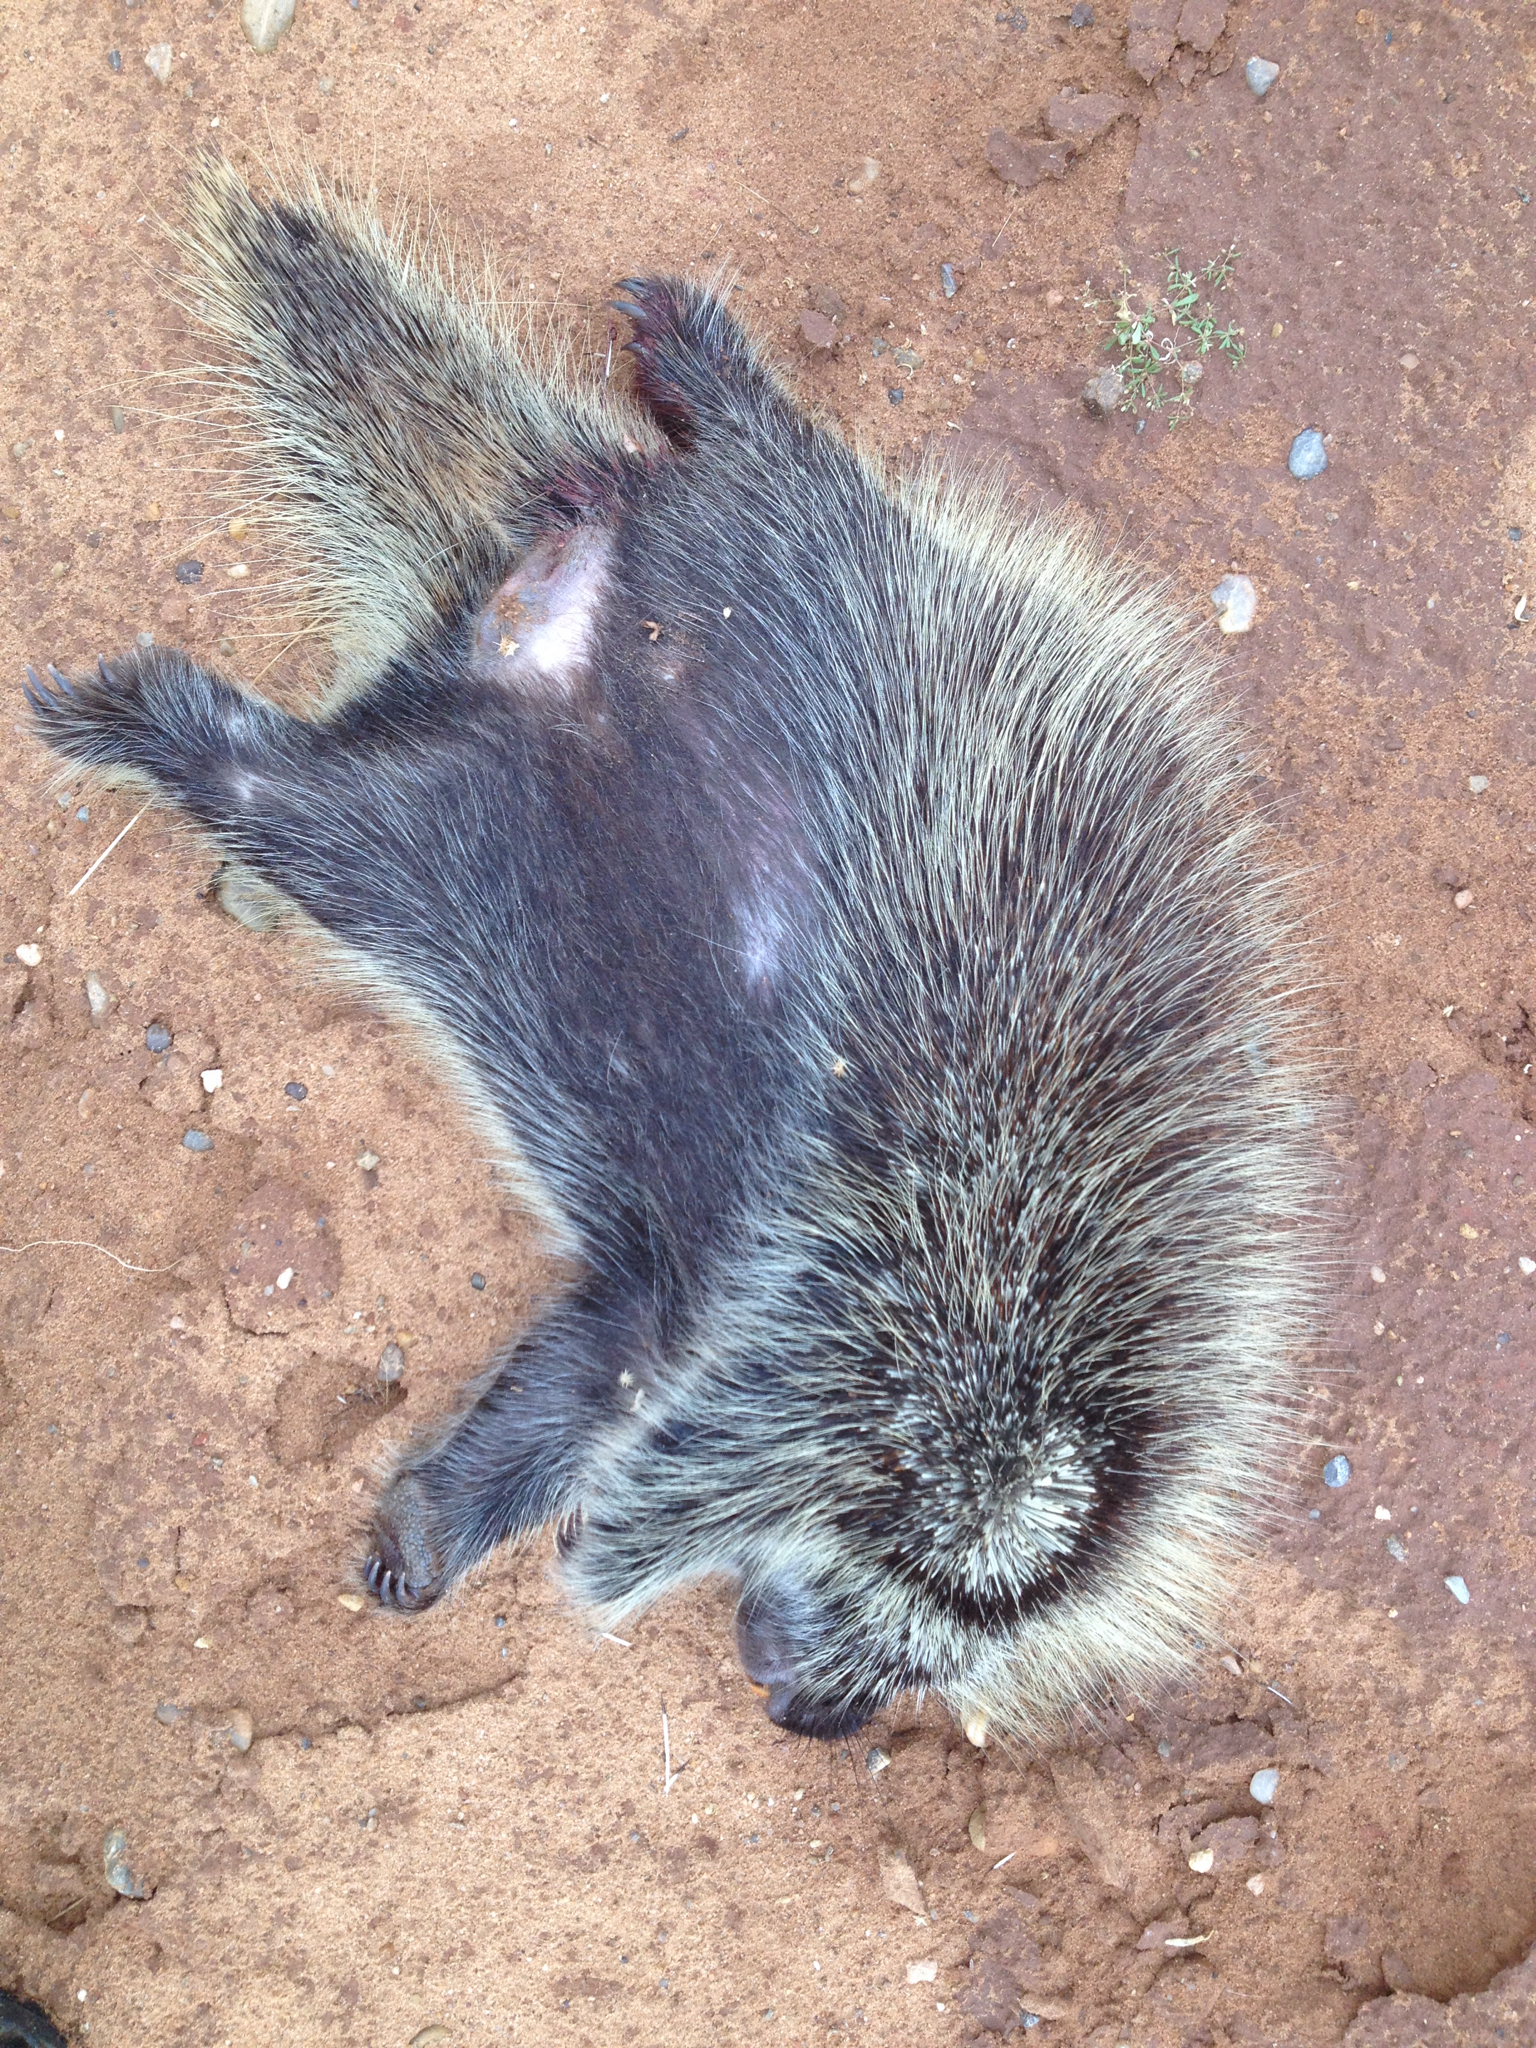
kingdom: Animalia
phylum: Chordata
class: Mammalia
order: Rodentia
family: Erethizontidae
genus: Erethizon
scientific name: Erethizon dorsatus
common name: North american porcupine
